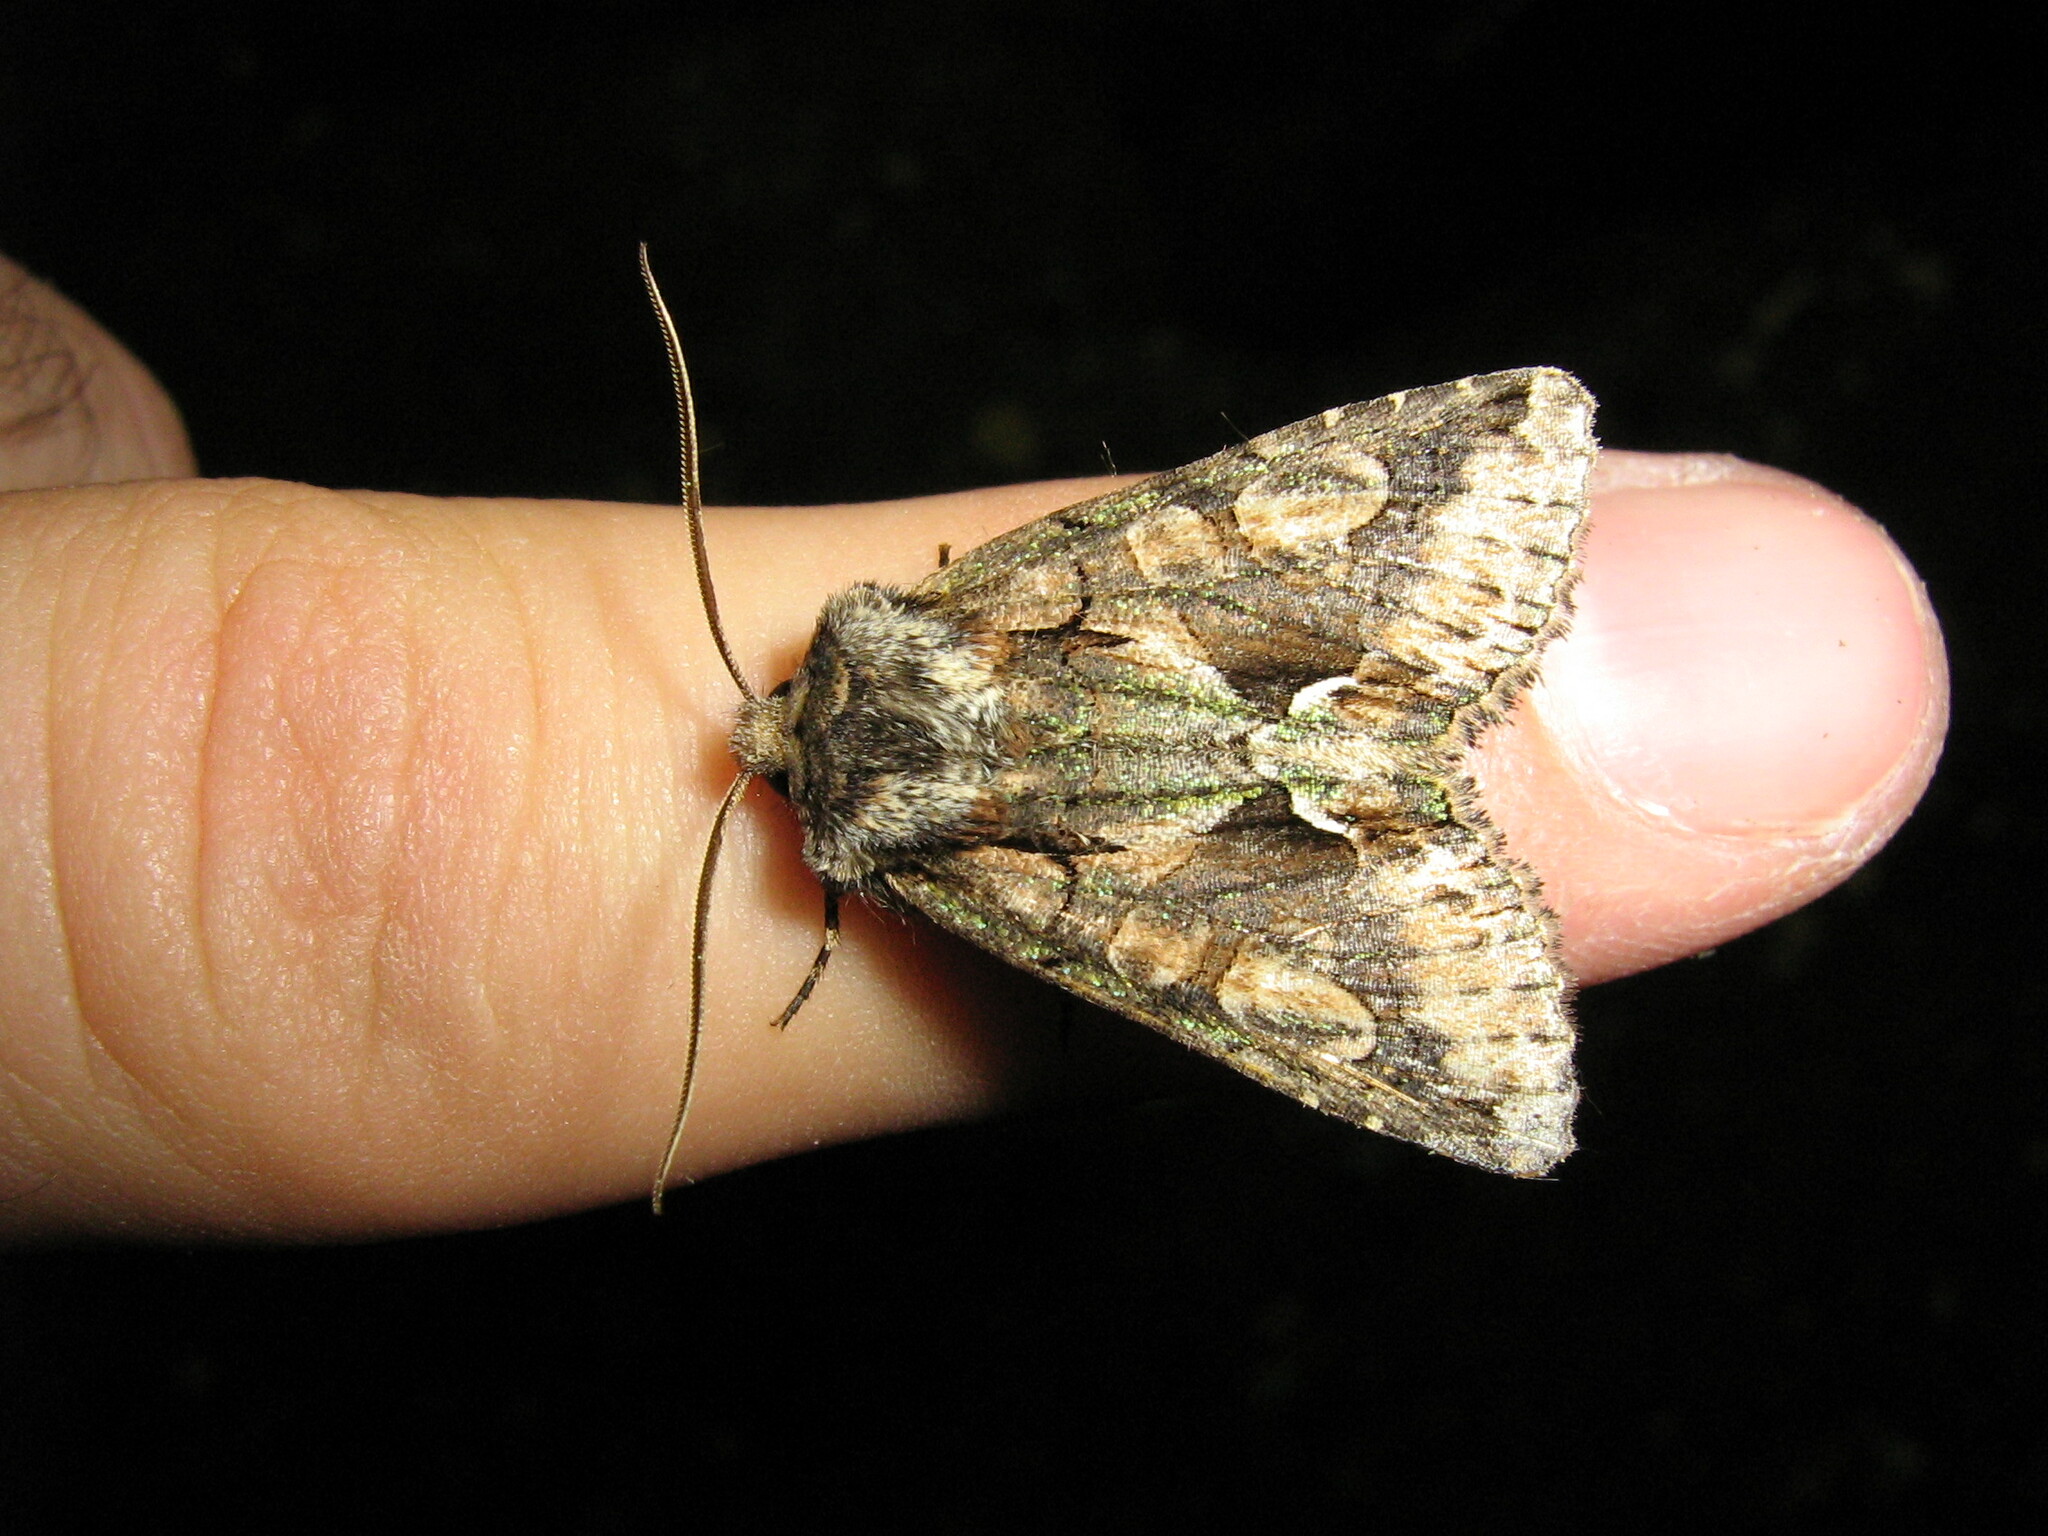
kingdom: Animalia
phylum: Arthropoda
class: Insecta
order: Lepidoptera
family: Noctuidae
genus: Allophyes
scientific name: Allophyes oxyacanthae
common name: Green-brindled crescent
